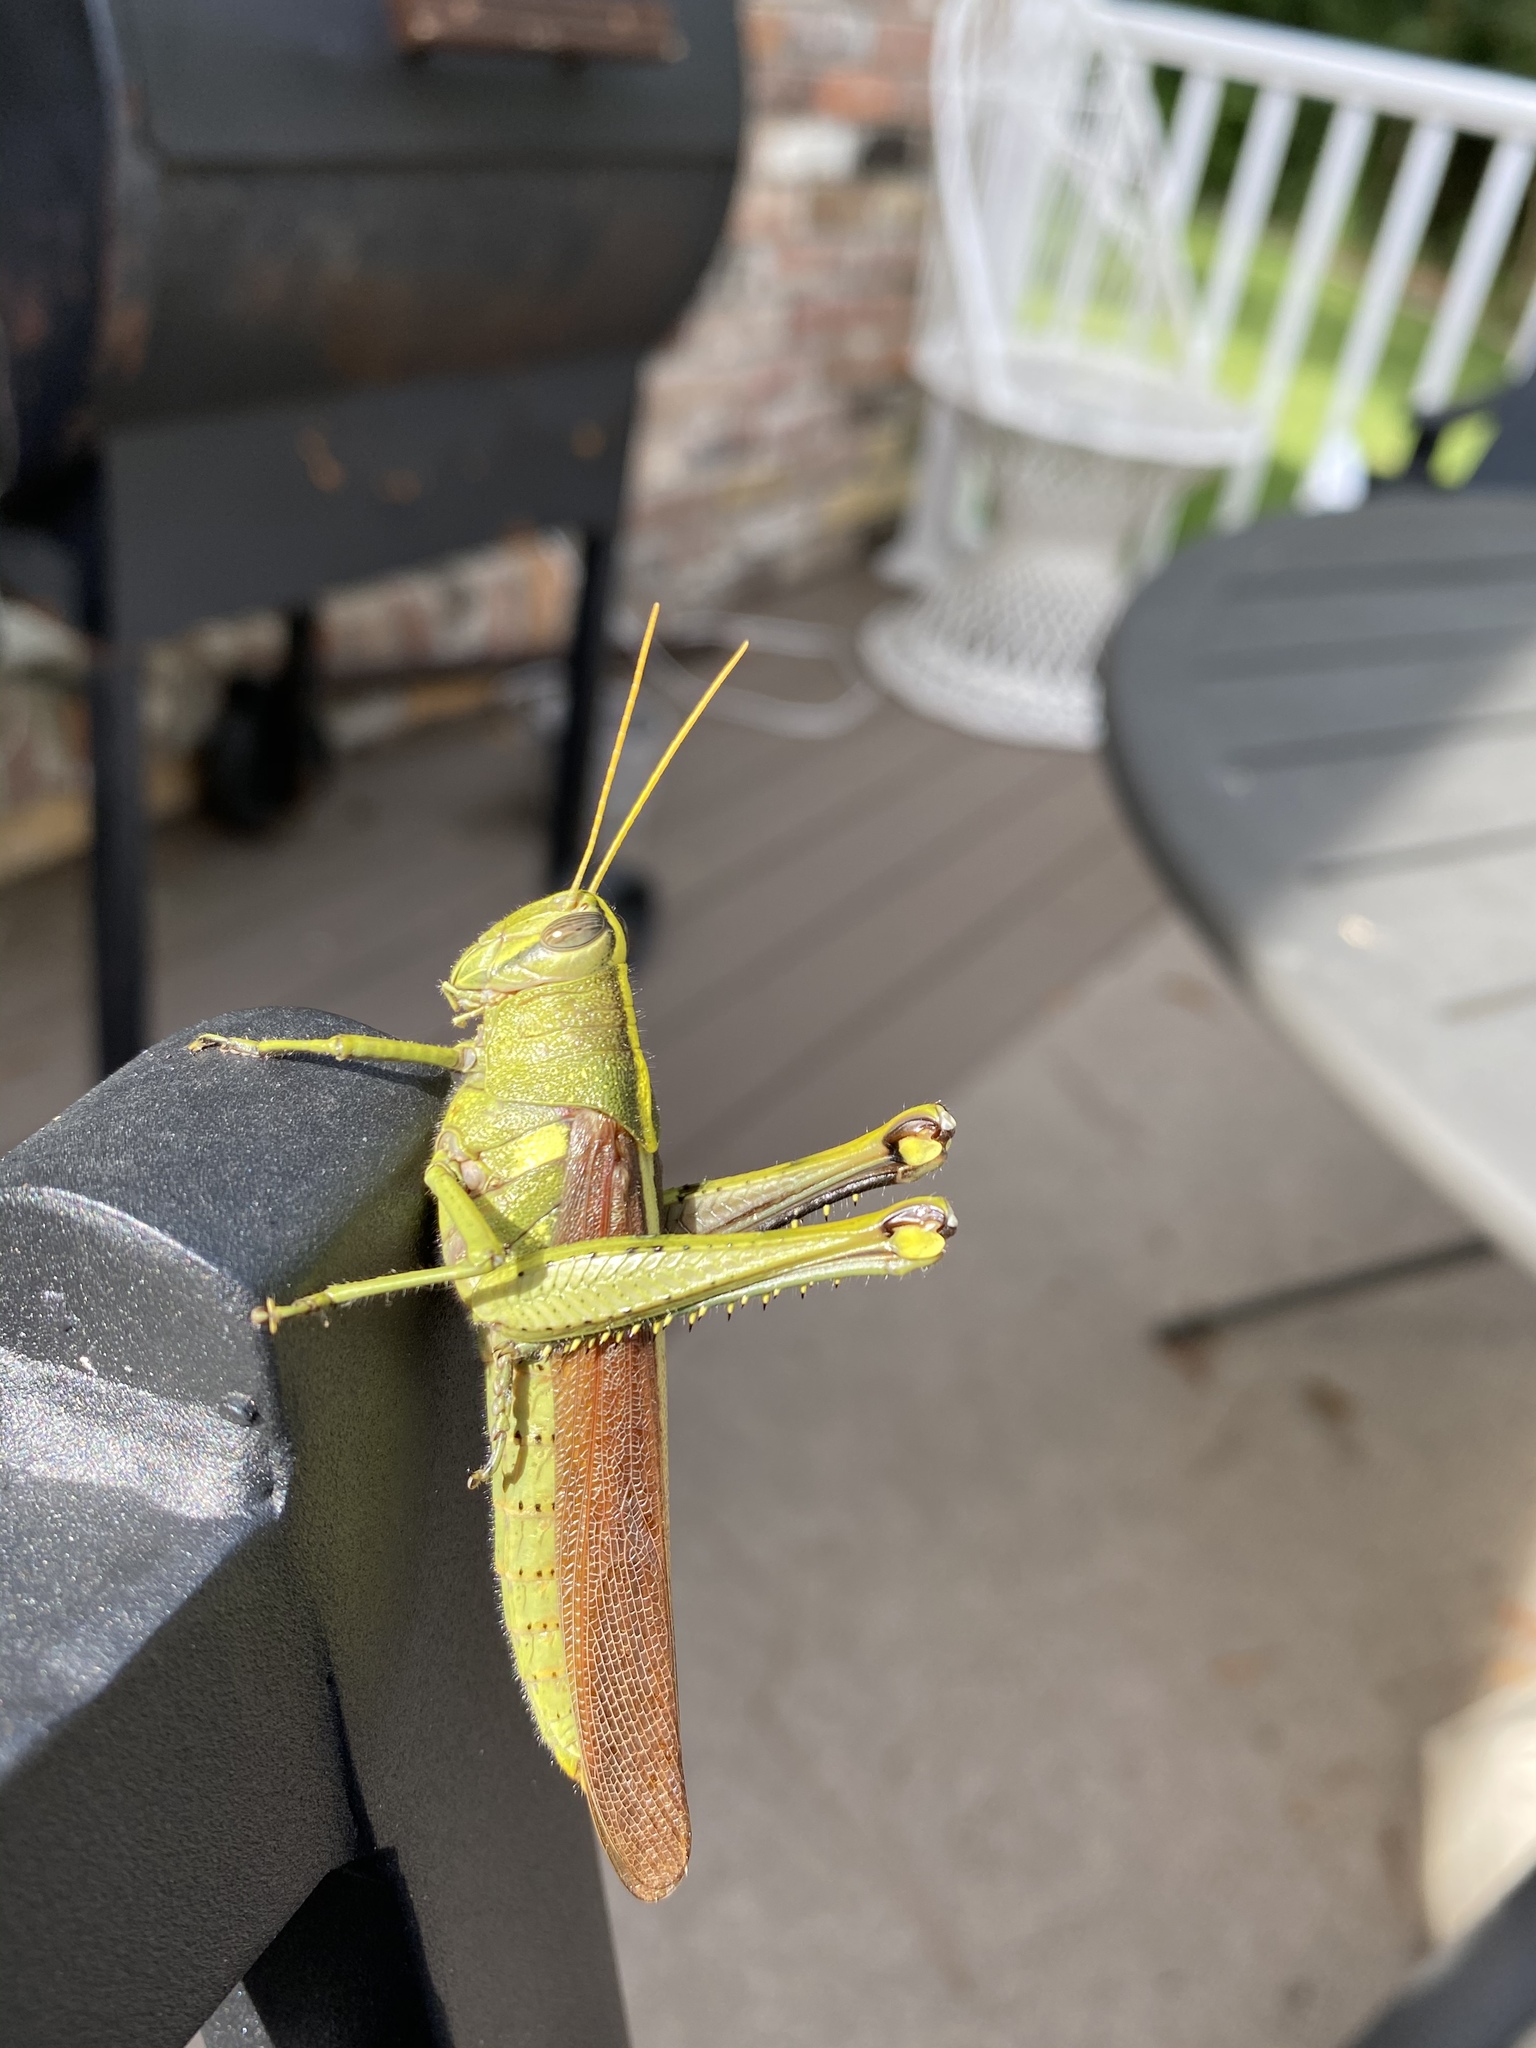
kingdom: Animalia
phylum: Arthropoda
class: Insecta
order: Orthoptera
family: Acrididae
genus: Schistocerca
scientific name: Schistocerca obscura
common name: Obscure bird grasshopper
